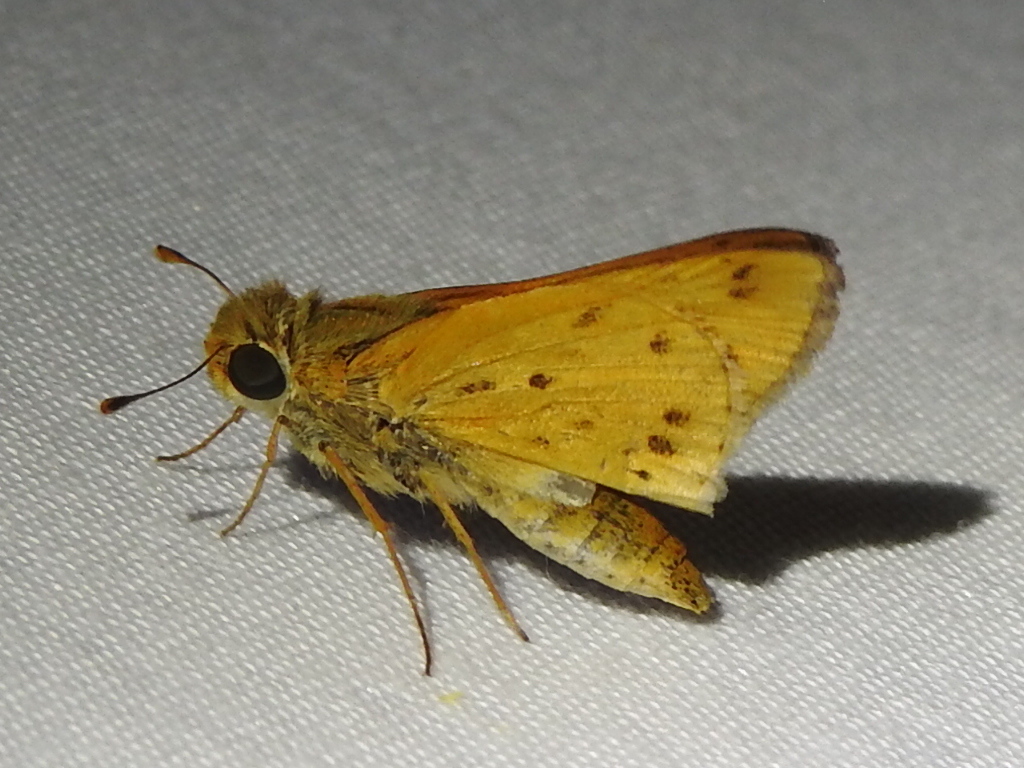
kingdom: Animalia
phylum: Arthropoda
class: Insecta
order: Lepidoptera
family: Hesperiidae
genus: Hylephila
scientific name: Hylephila phyleus
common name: Fiery skipper
